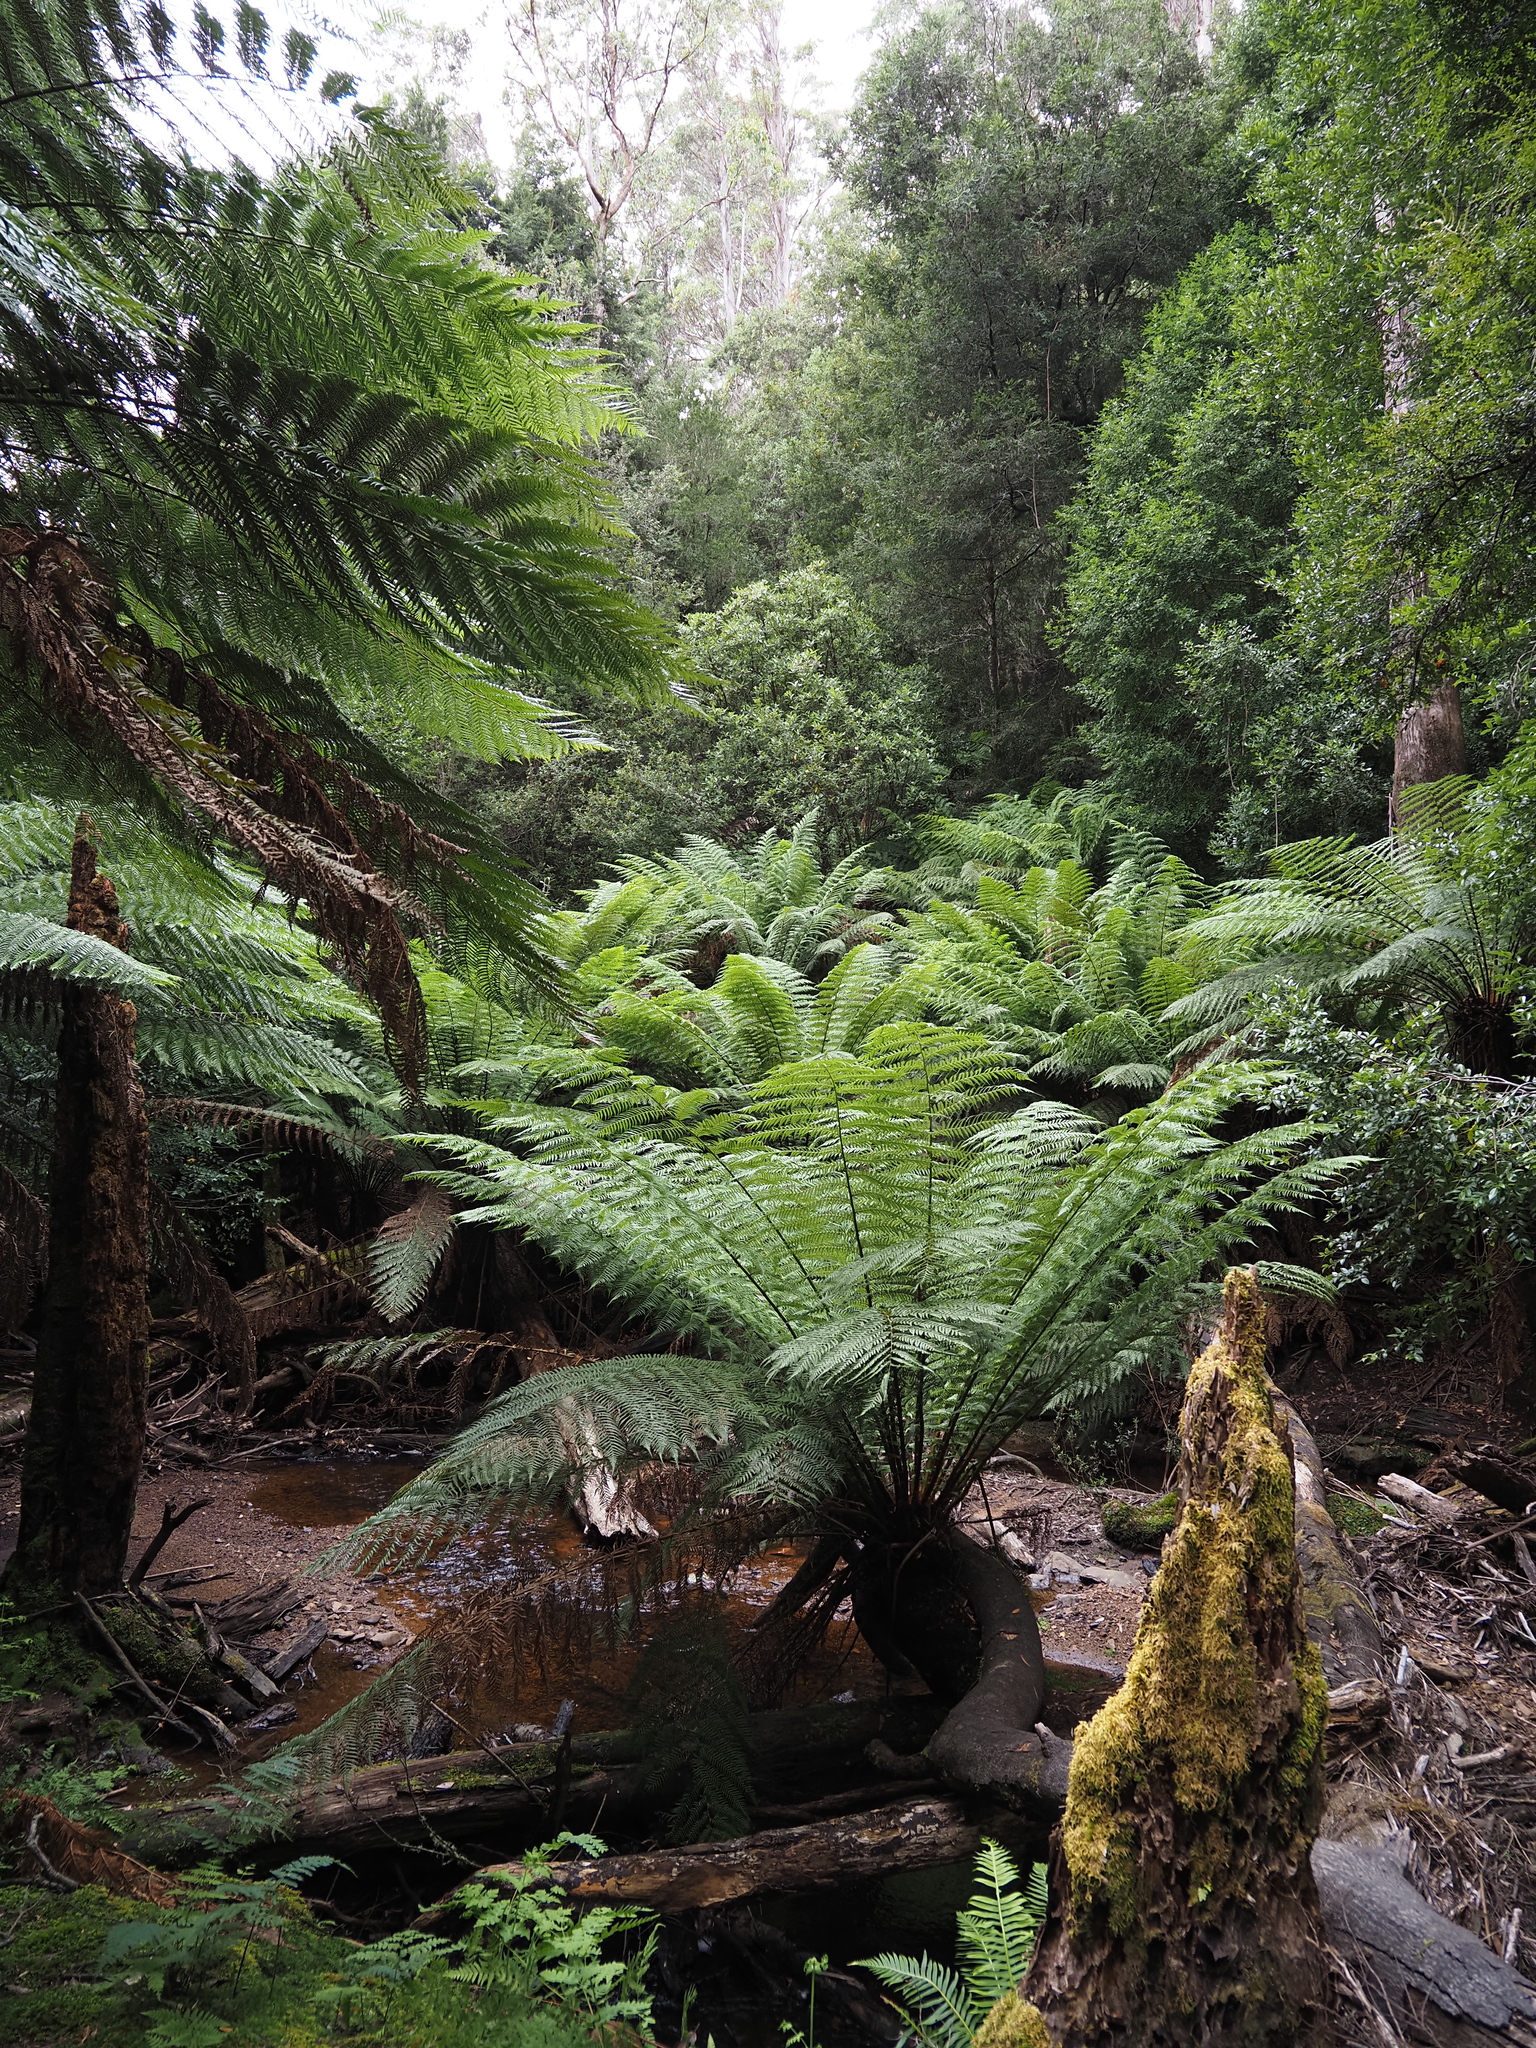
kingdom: Plantae
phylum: Tracheophyta
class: Polypodiopsida
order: Cyatheales
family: Dicksoniaceae
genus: Dicksonia
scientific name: Dicksonia antarctica
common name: Australian treefern
